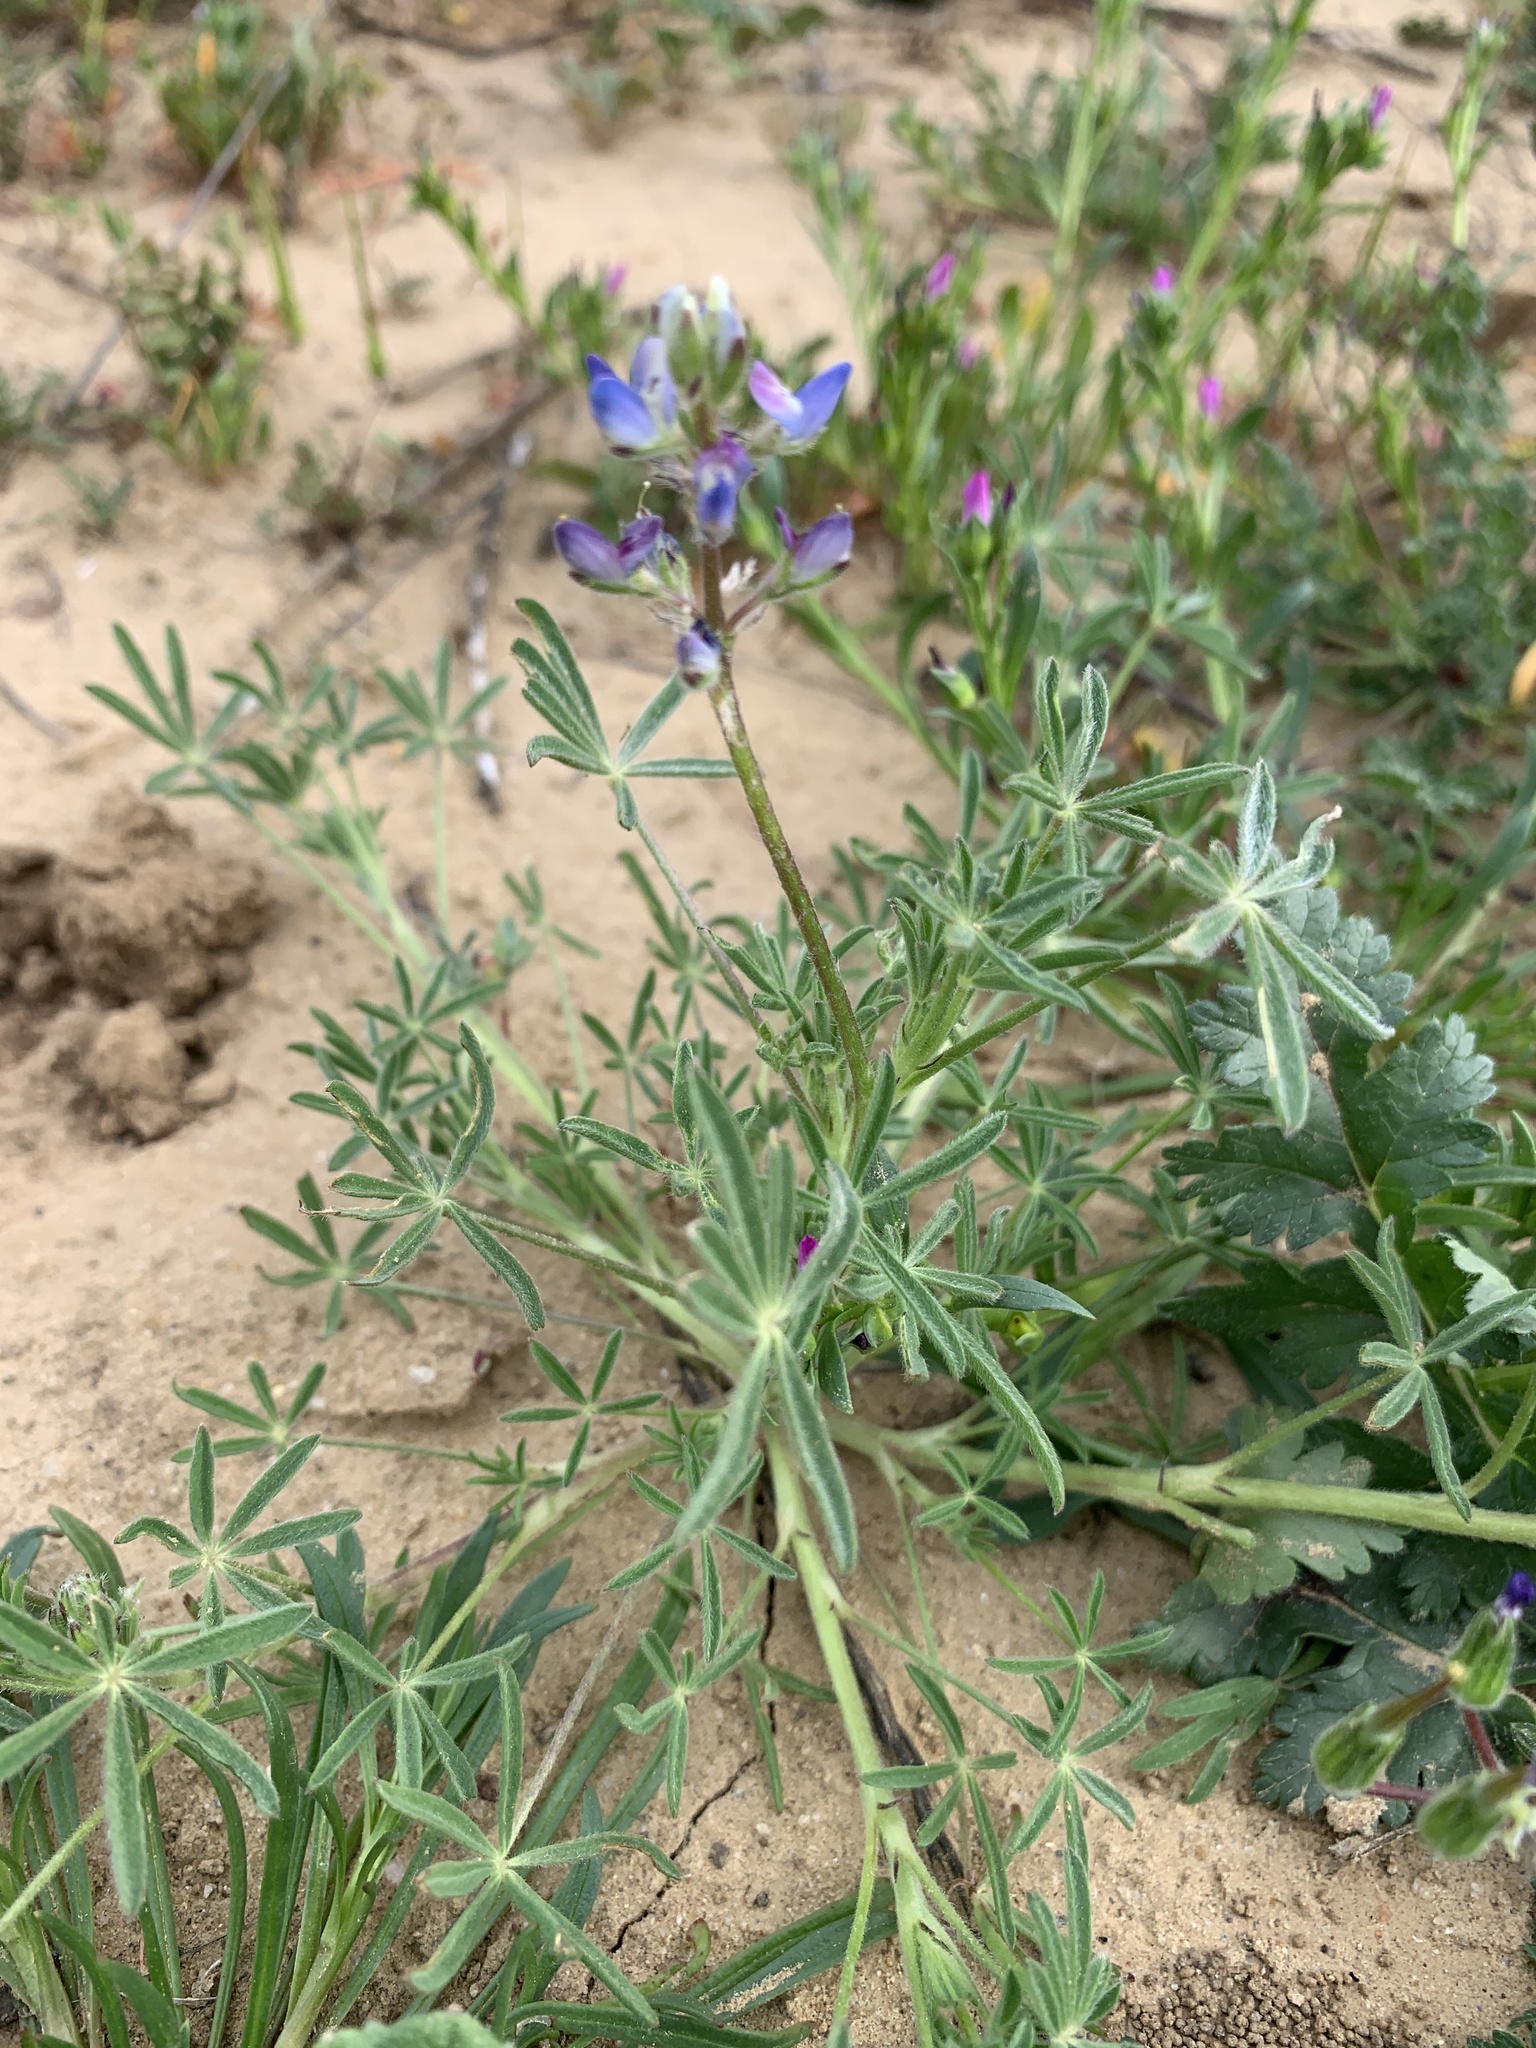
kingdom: Plantae
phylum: Tracheophyta
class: Magnoliopsida
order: Fabales
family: Fabaceae
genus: Lupinus
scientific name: Lupinus bicolor
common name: Miniature lupine
